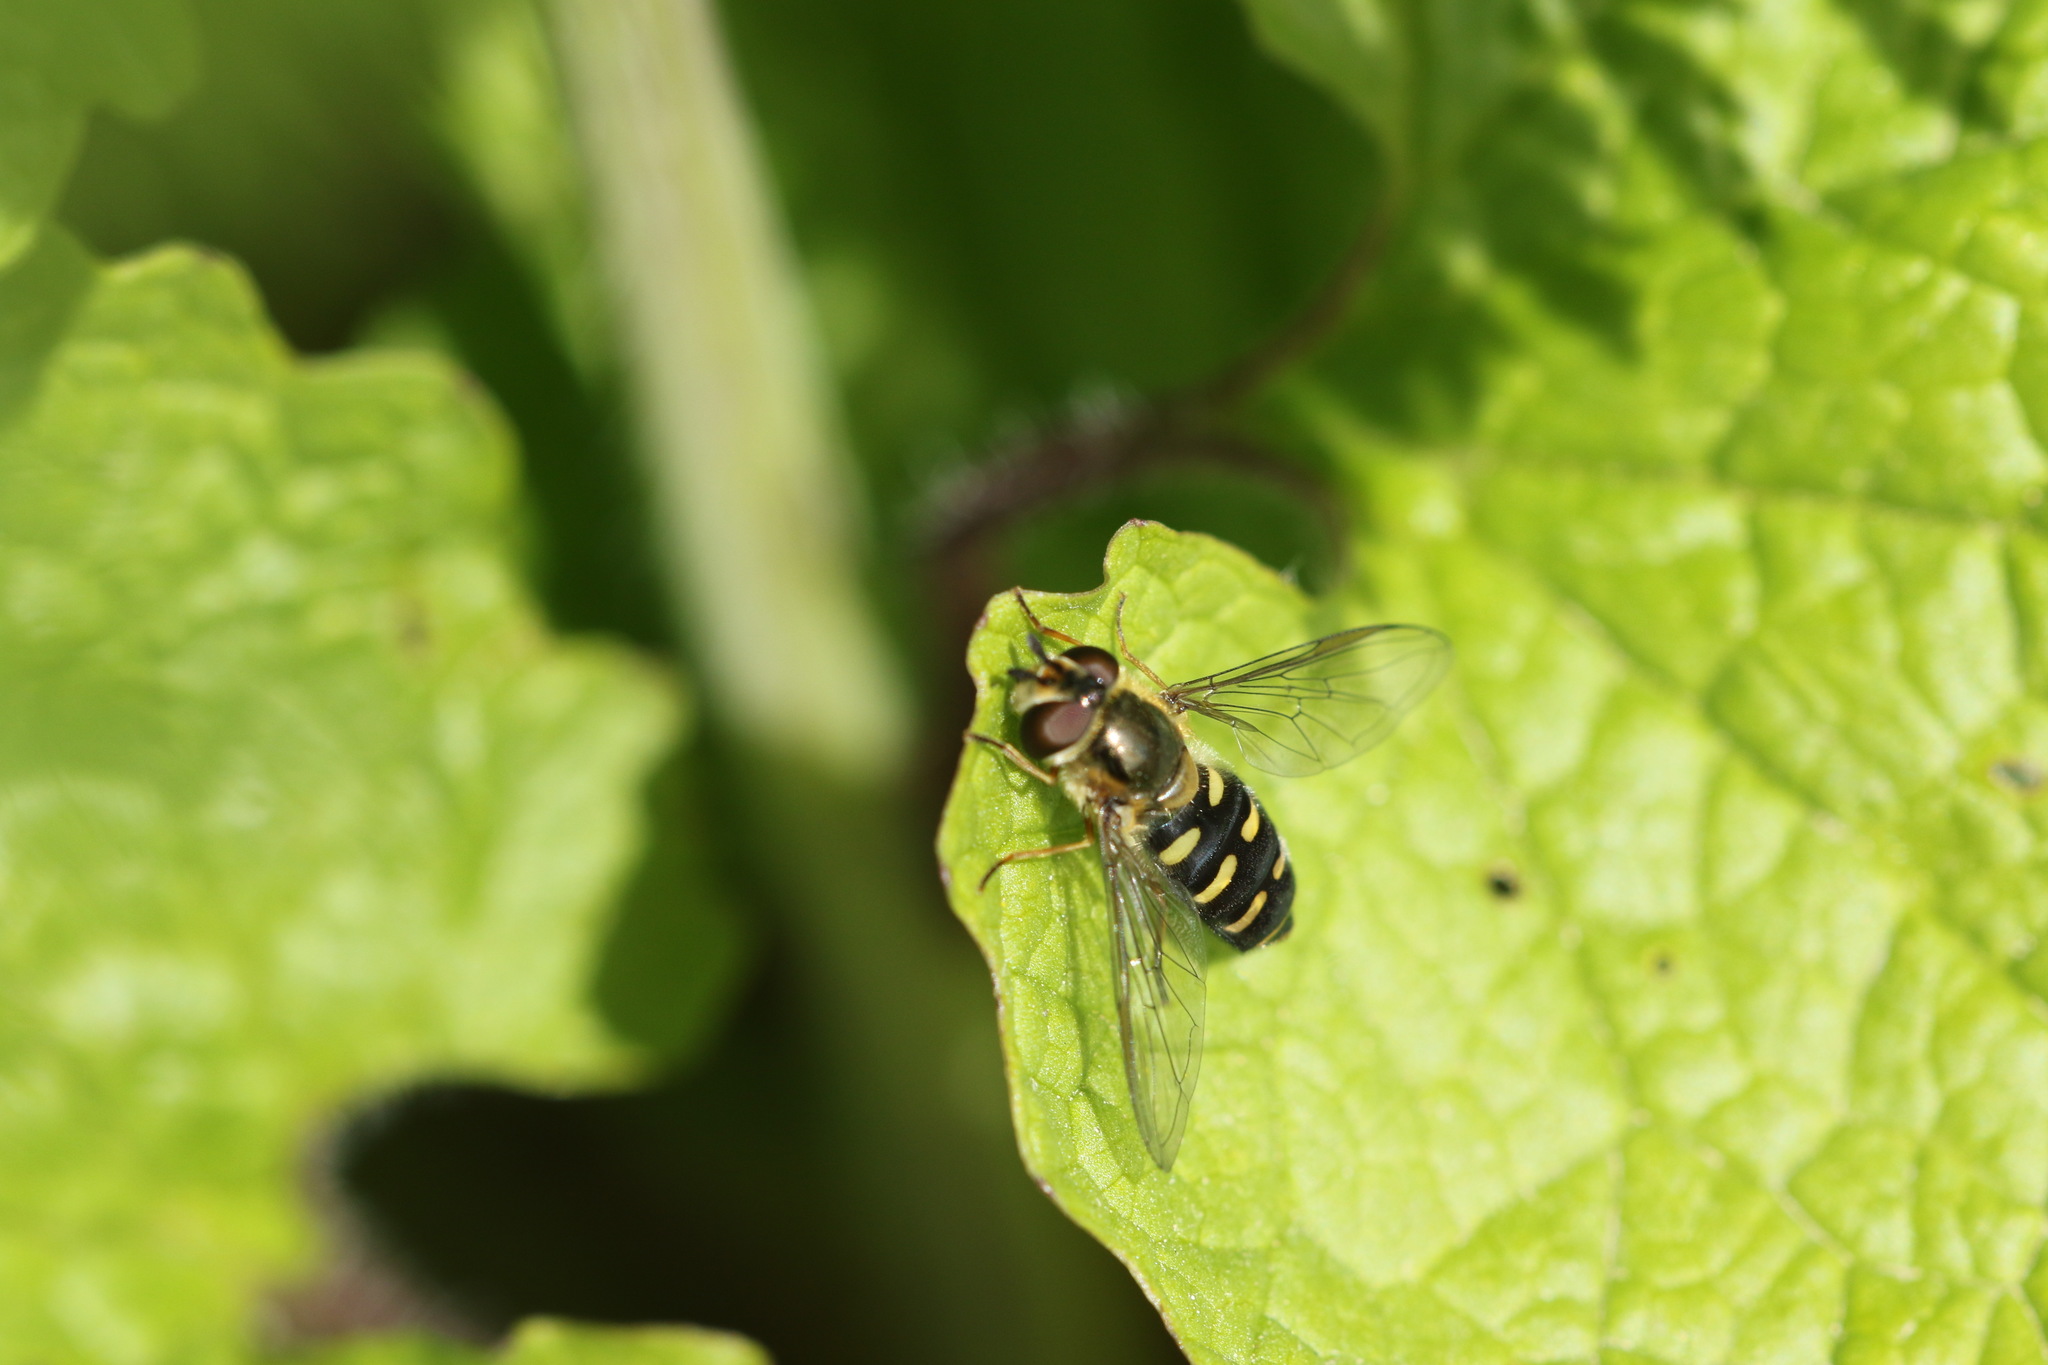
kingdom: Animalia
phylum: Arthropoda
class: Insecta
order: Diptera
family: Syrphidae
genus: Eupeodes
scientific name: Eupeodes luniger
